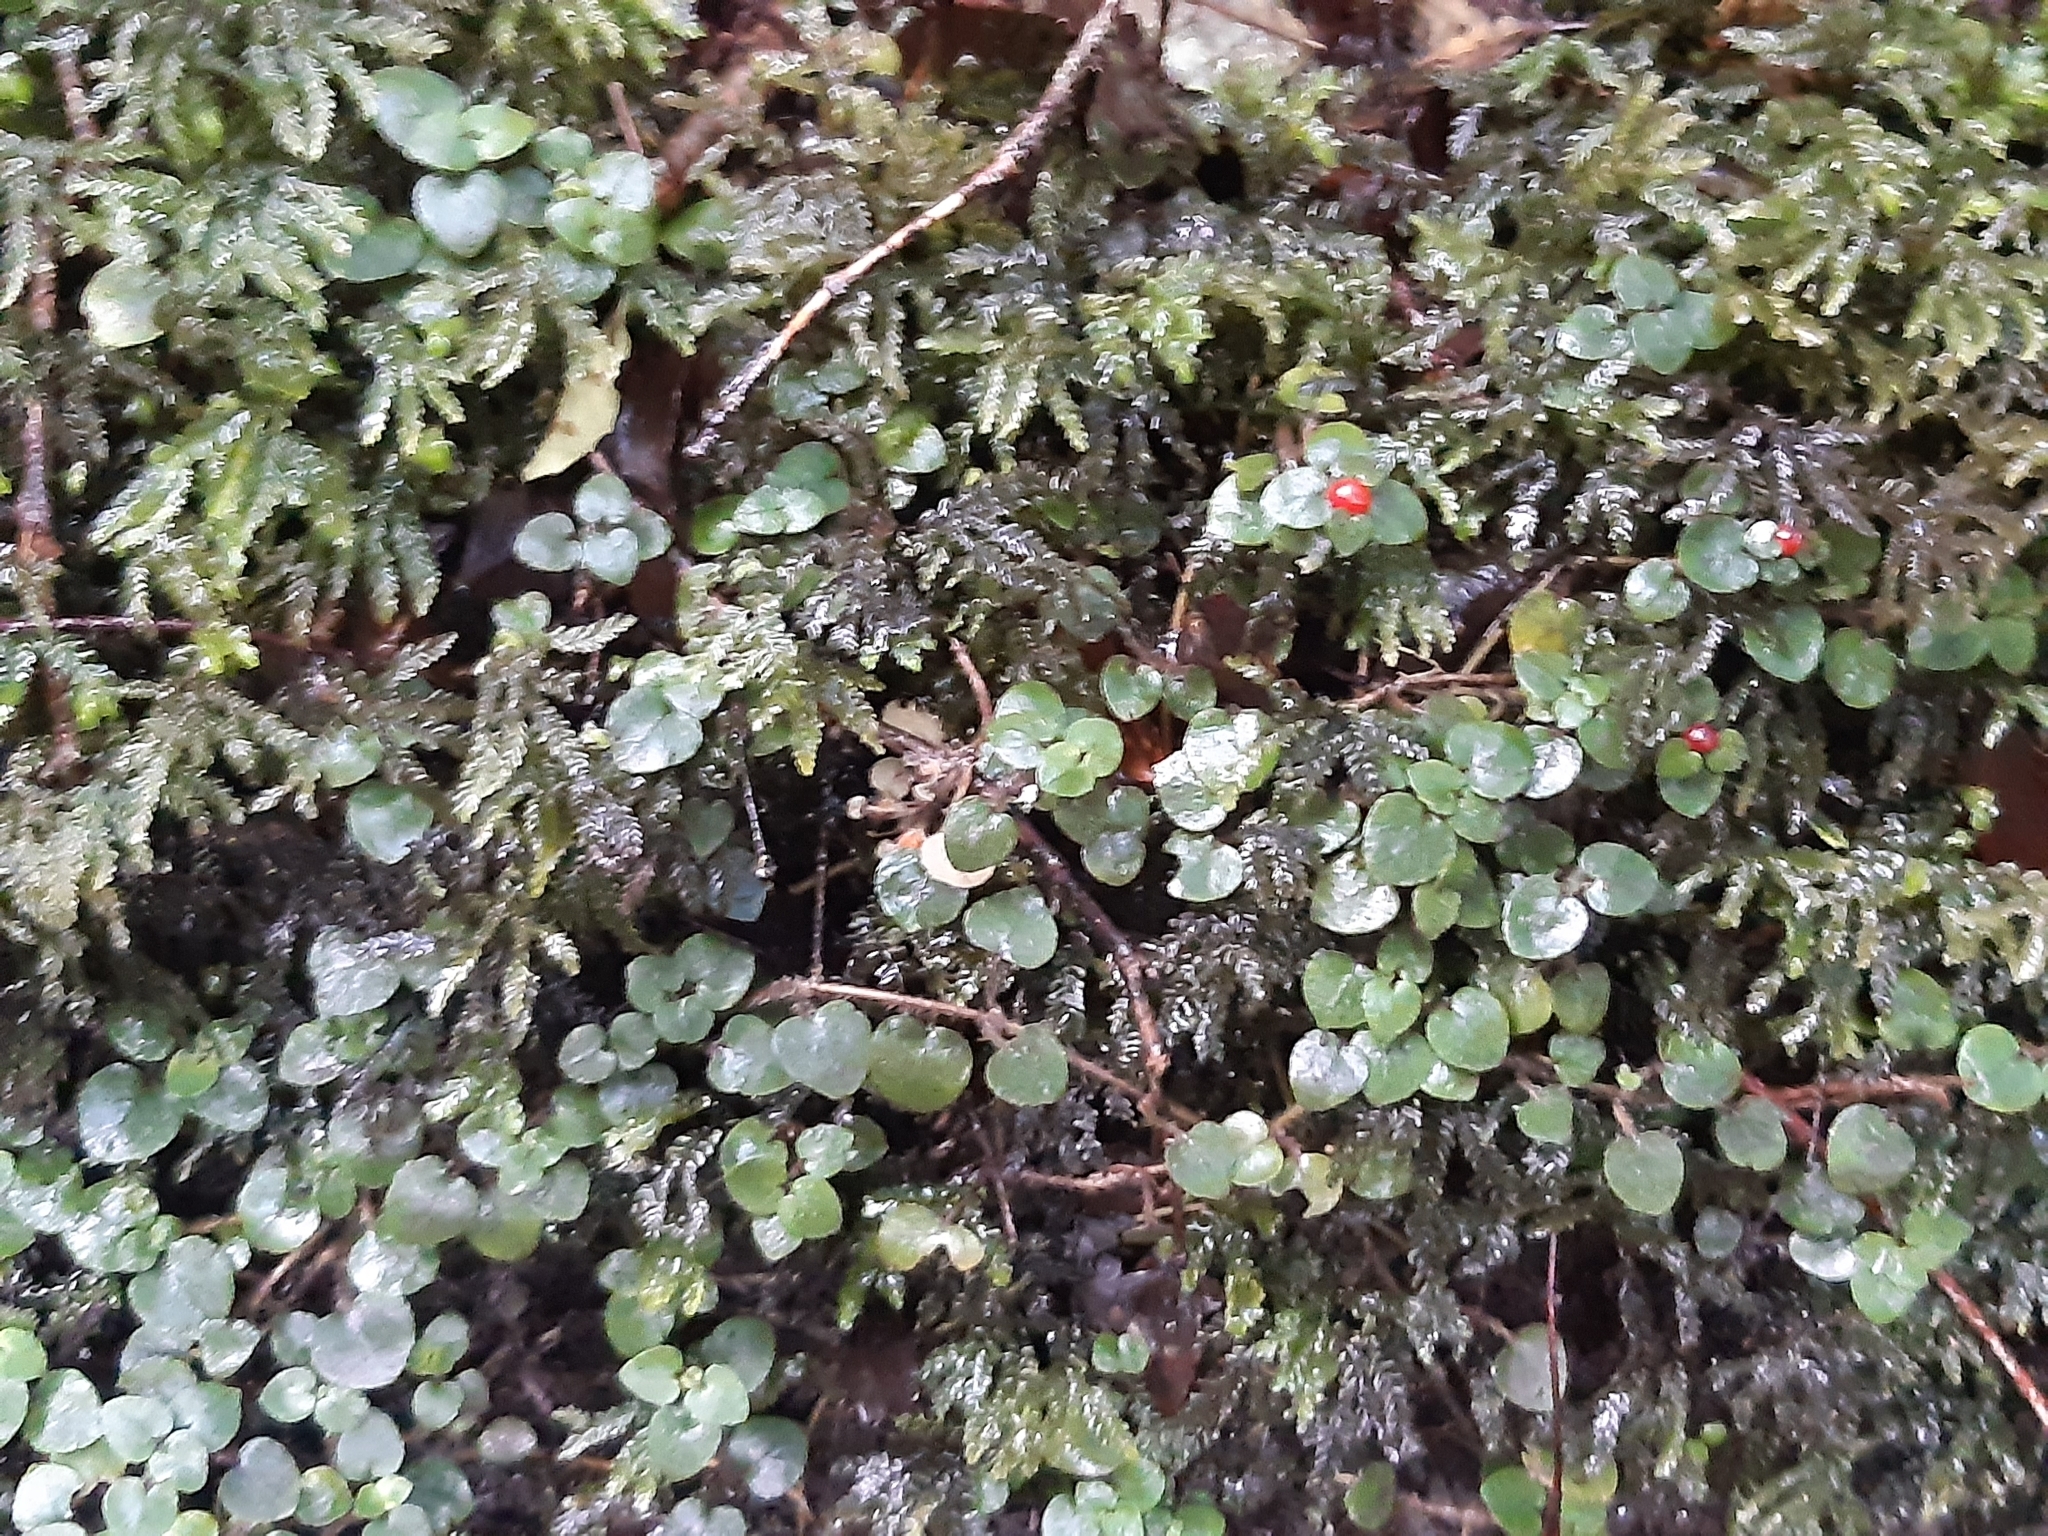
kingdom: Plantae
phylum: Tracheophyta
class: Magnoliopsida
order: Gentianales
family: Rubiaceae
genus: Nertera
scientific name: Nertera villosa
